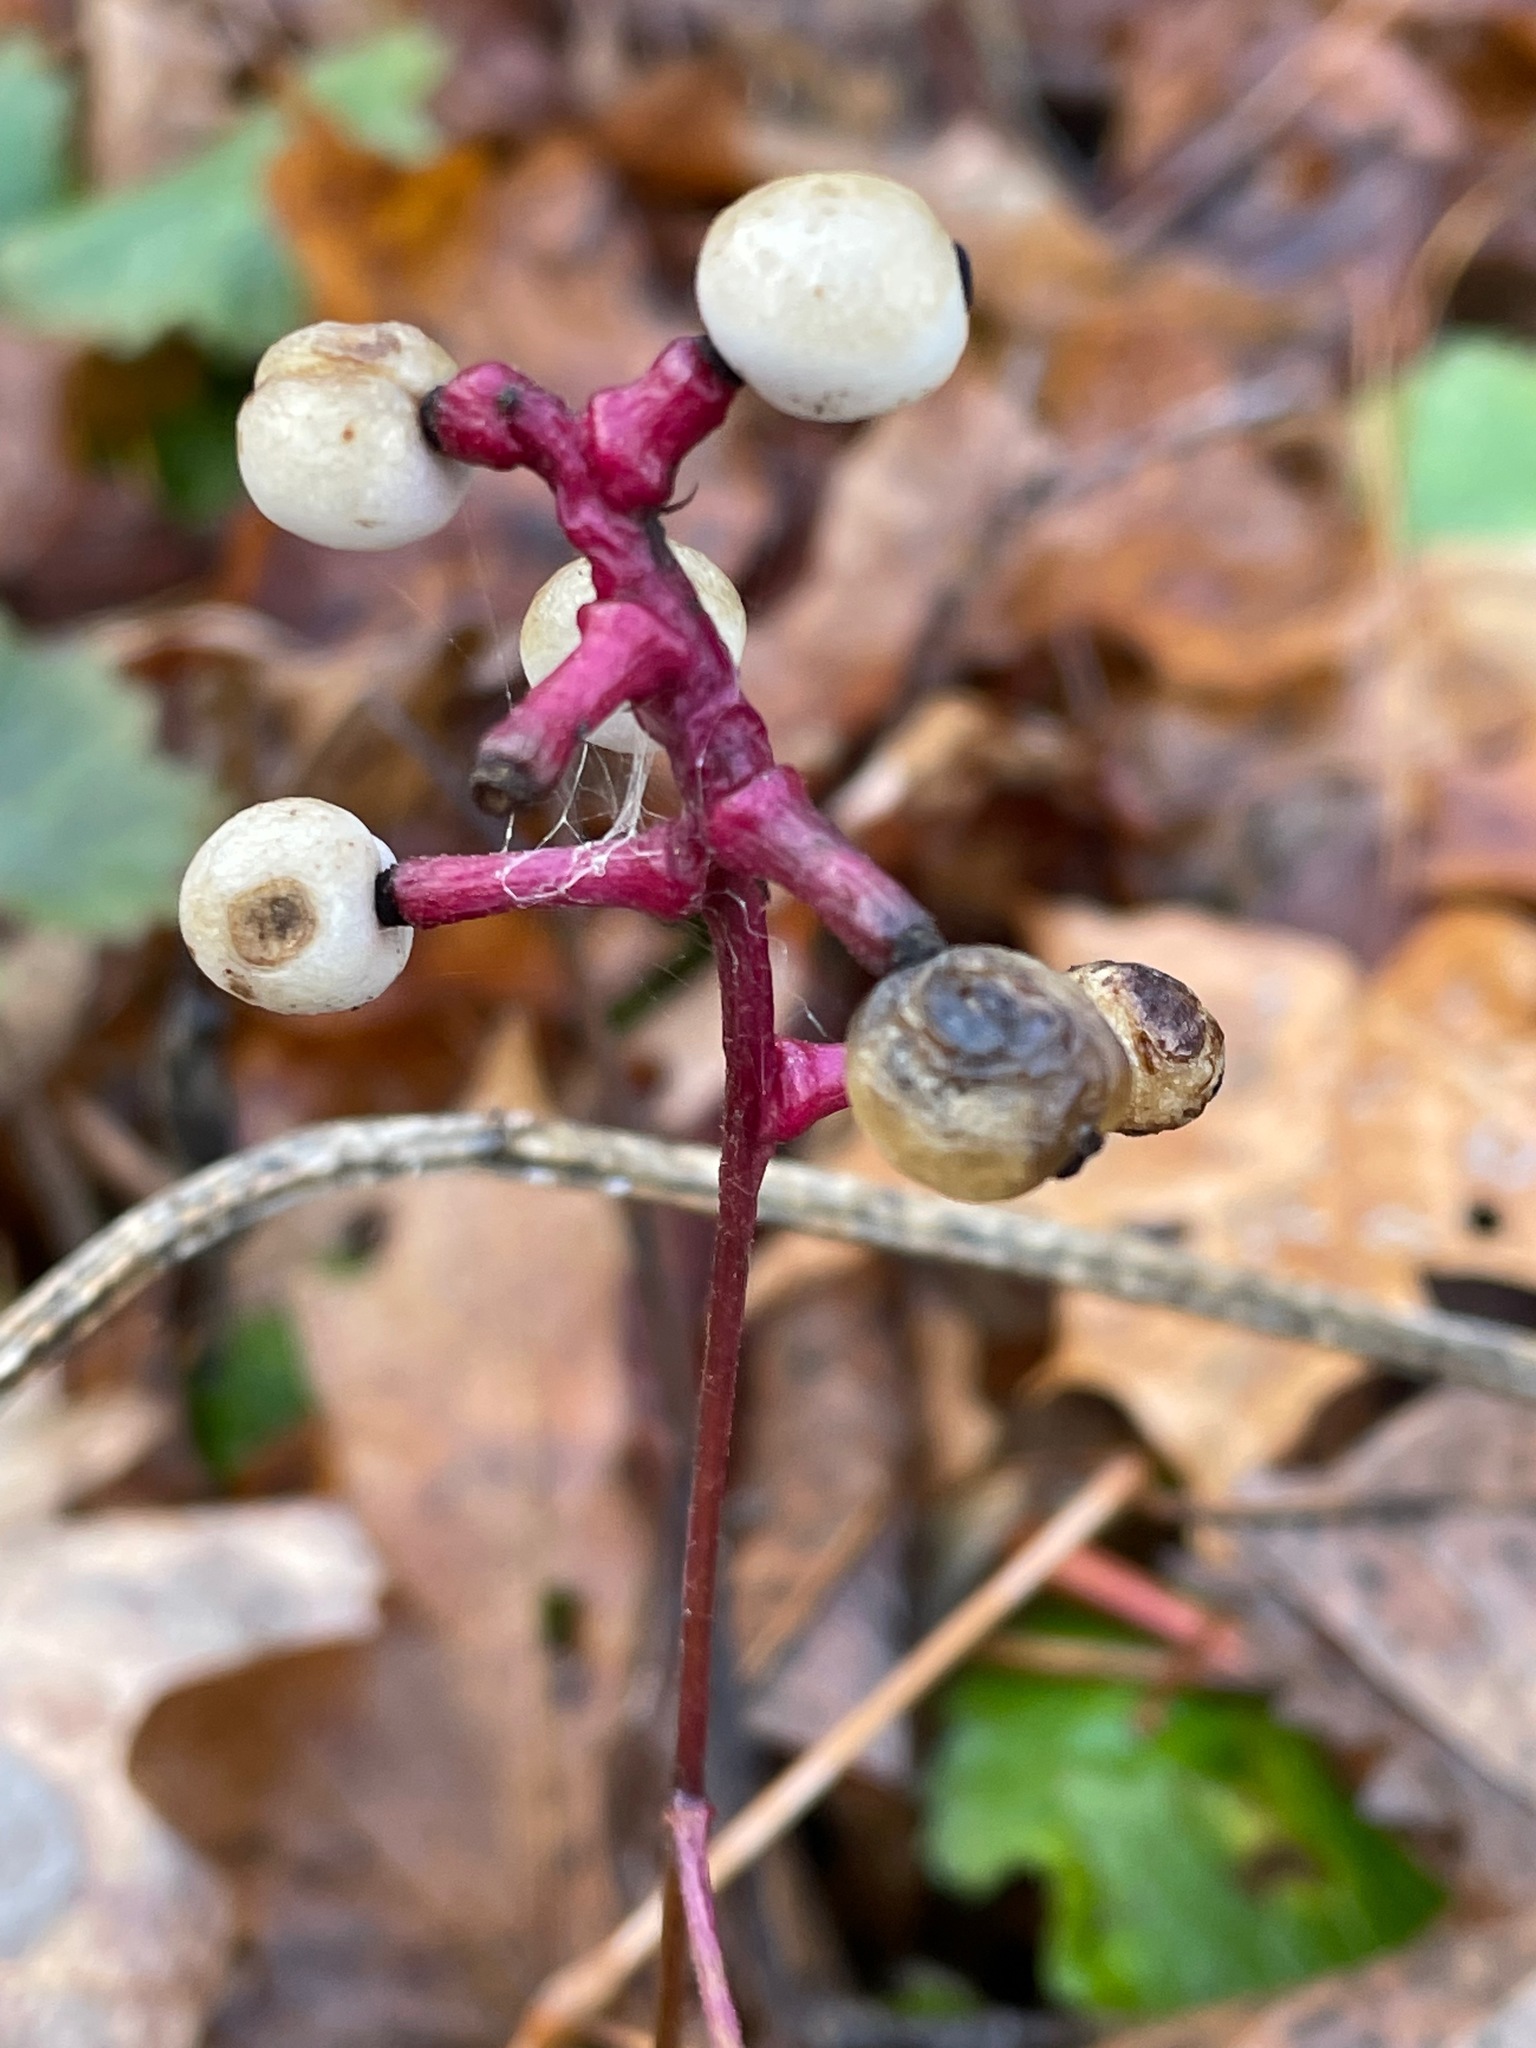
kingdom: Plantae
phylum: Tracheophyta
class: Magnoliopsida
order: Ranunculales
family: Ranunculaceae
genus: Actaea
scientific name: Actaea pachypoda
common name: Doll's-eyes
